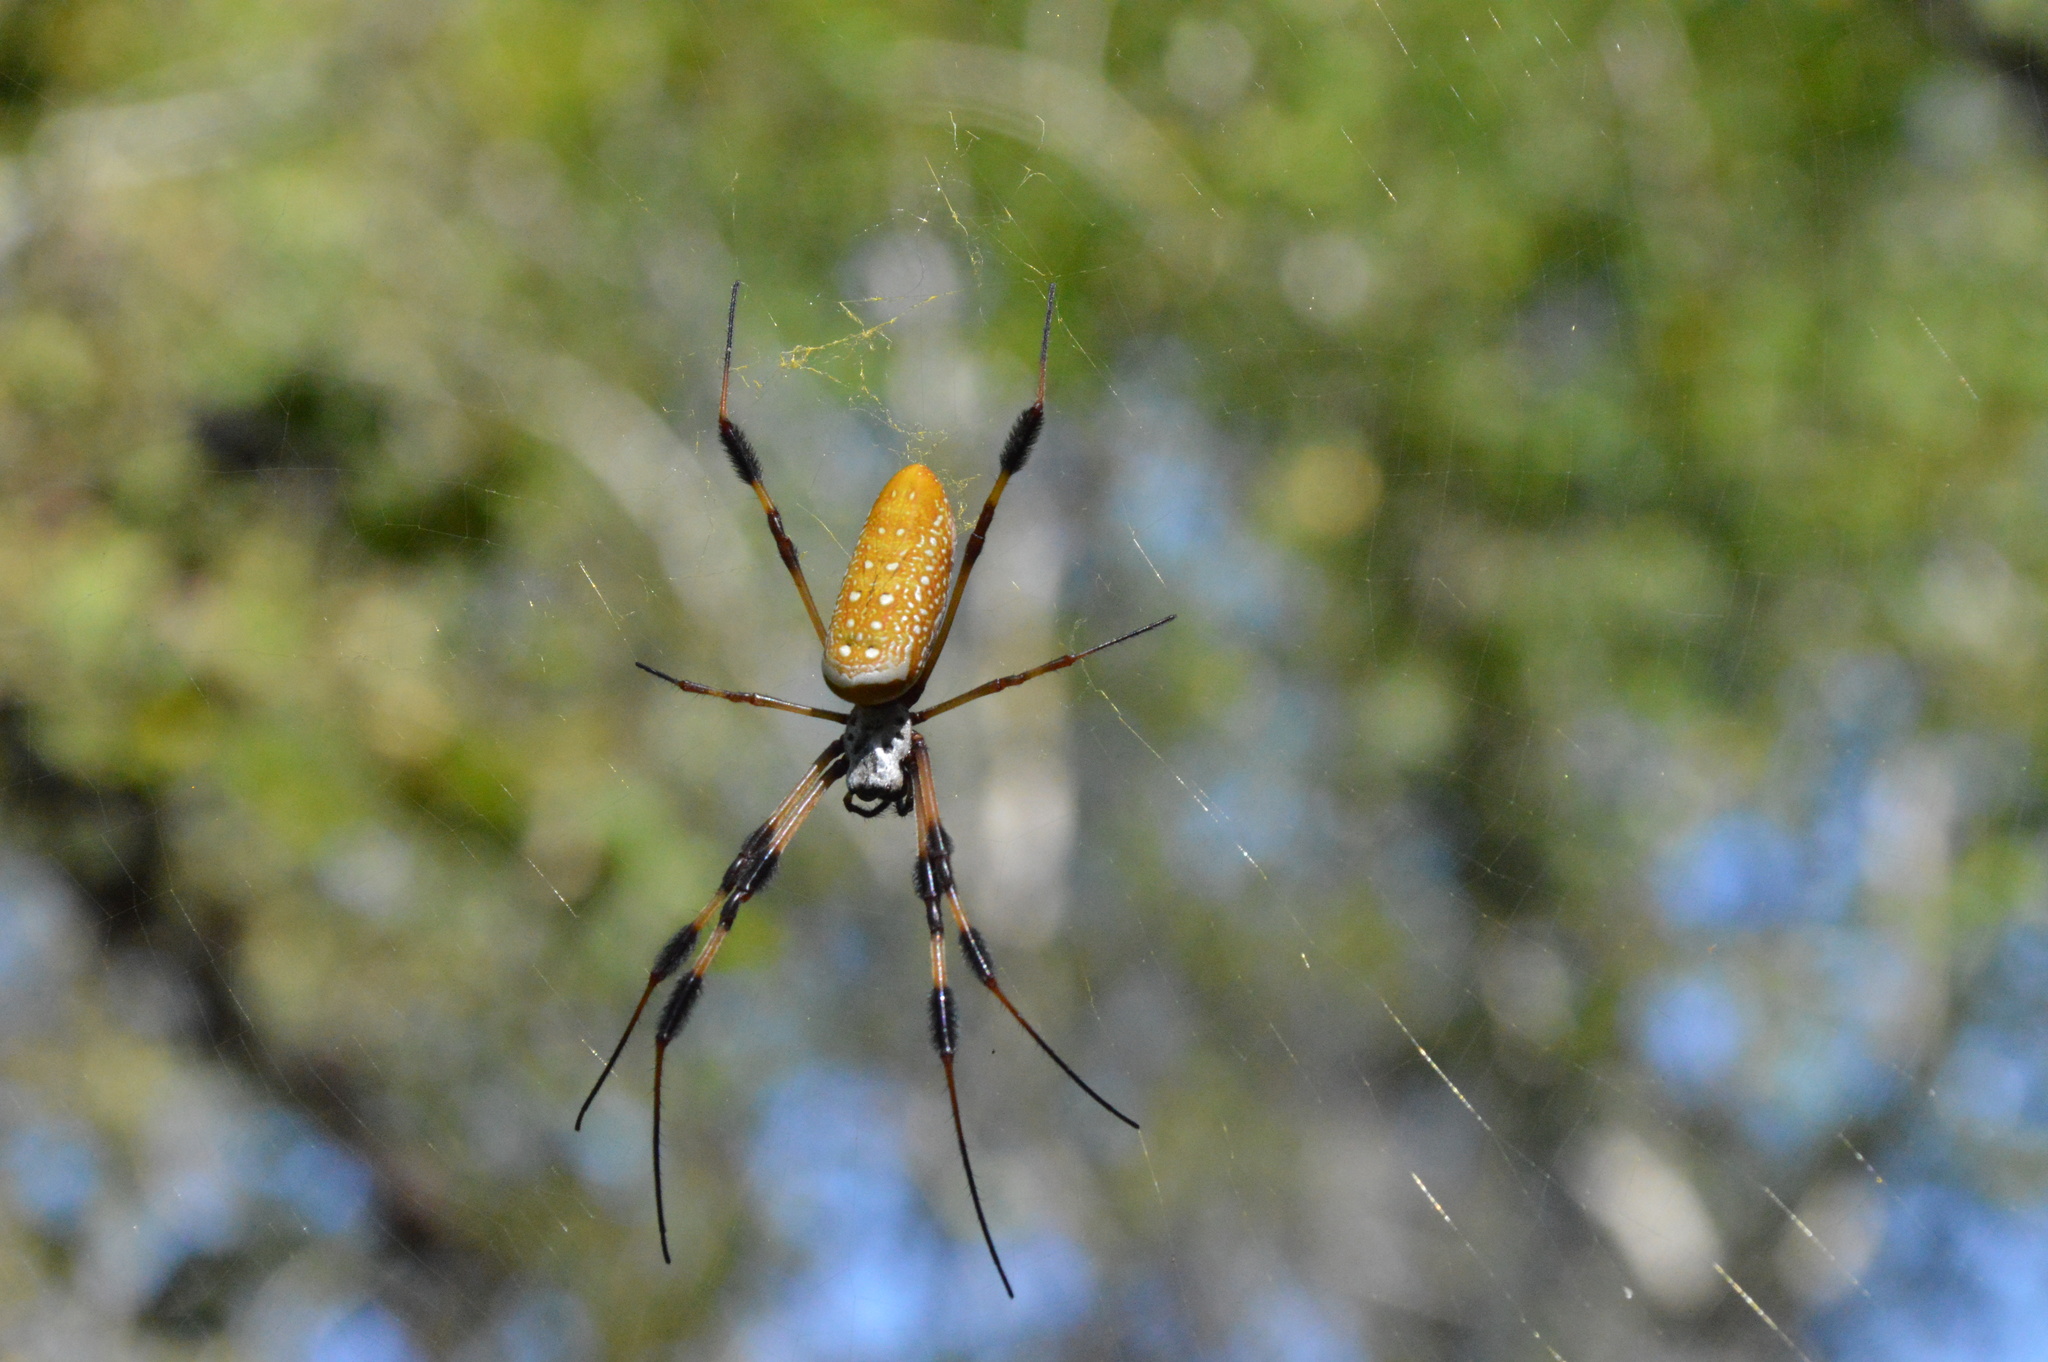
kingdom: Animalia
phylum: Arthropoda
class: Arachnida
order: Araneae
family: Araneidae
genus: Trichonephila
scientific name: Trichonephila clavipes
